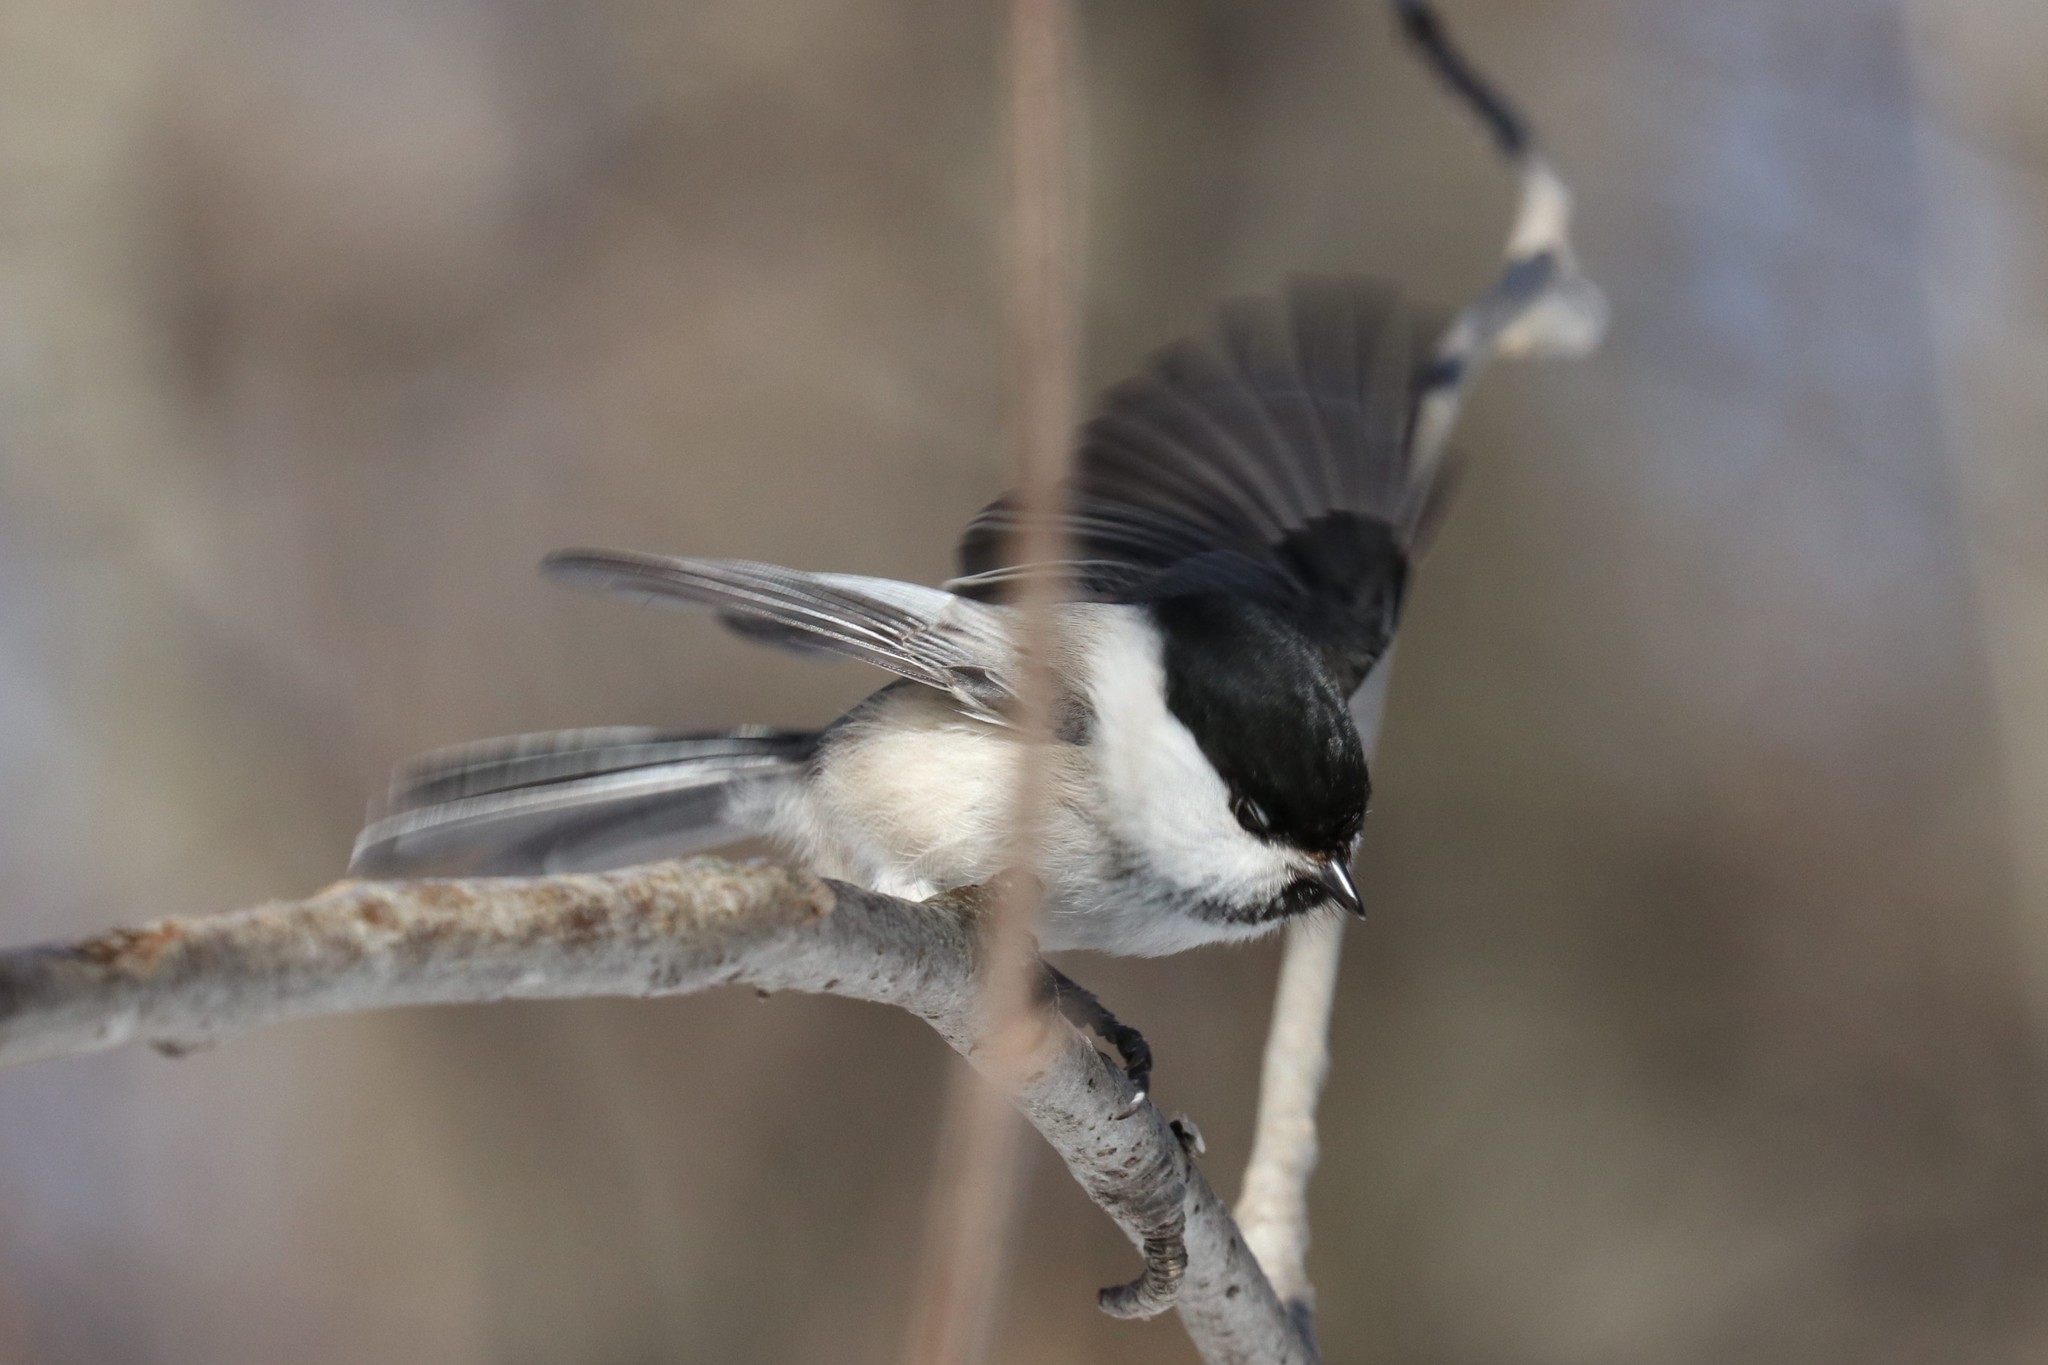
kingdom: Animalia
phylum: Chordata
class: Aves
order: Passeriformes
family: Paridae
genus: Poecile
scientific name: Poecile montanus
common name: Willow tit
